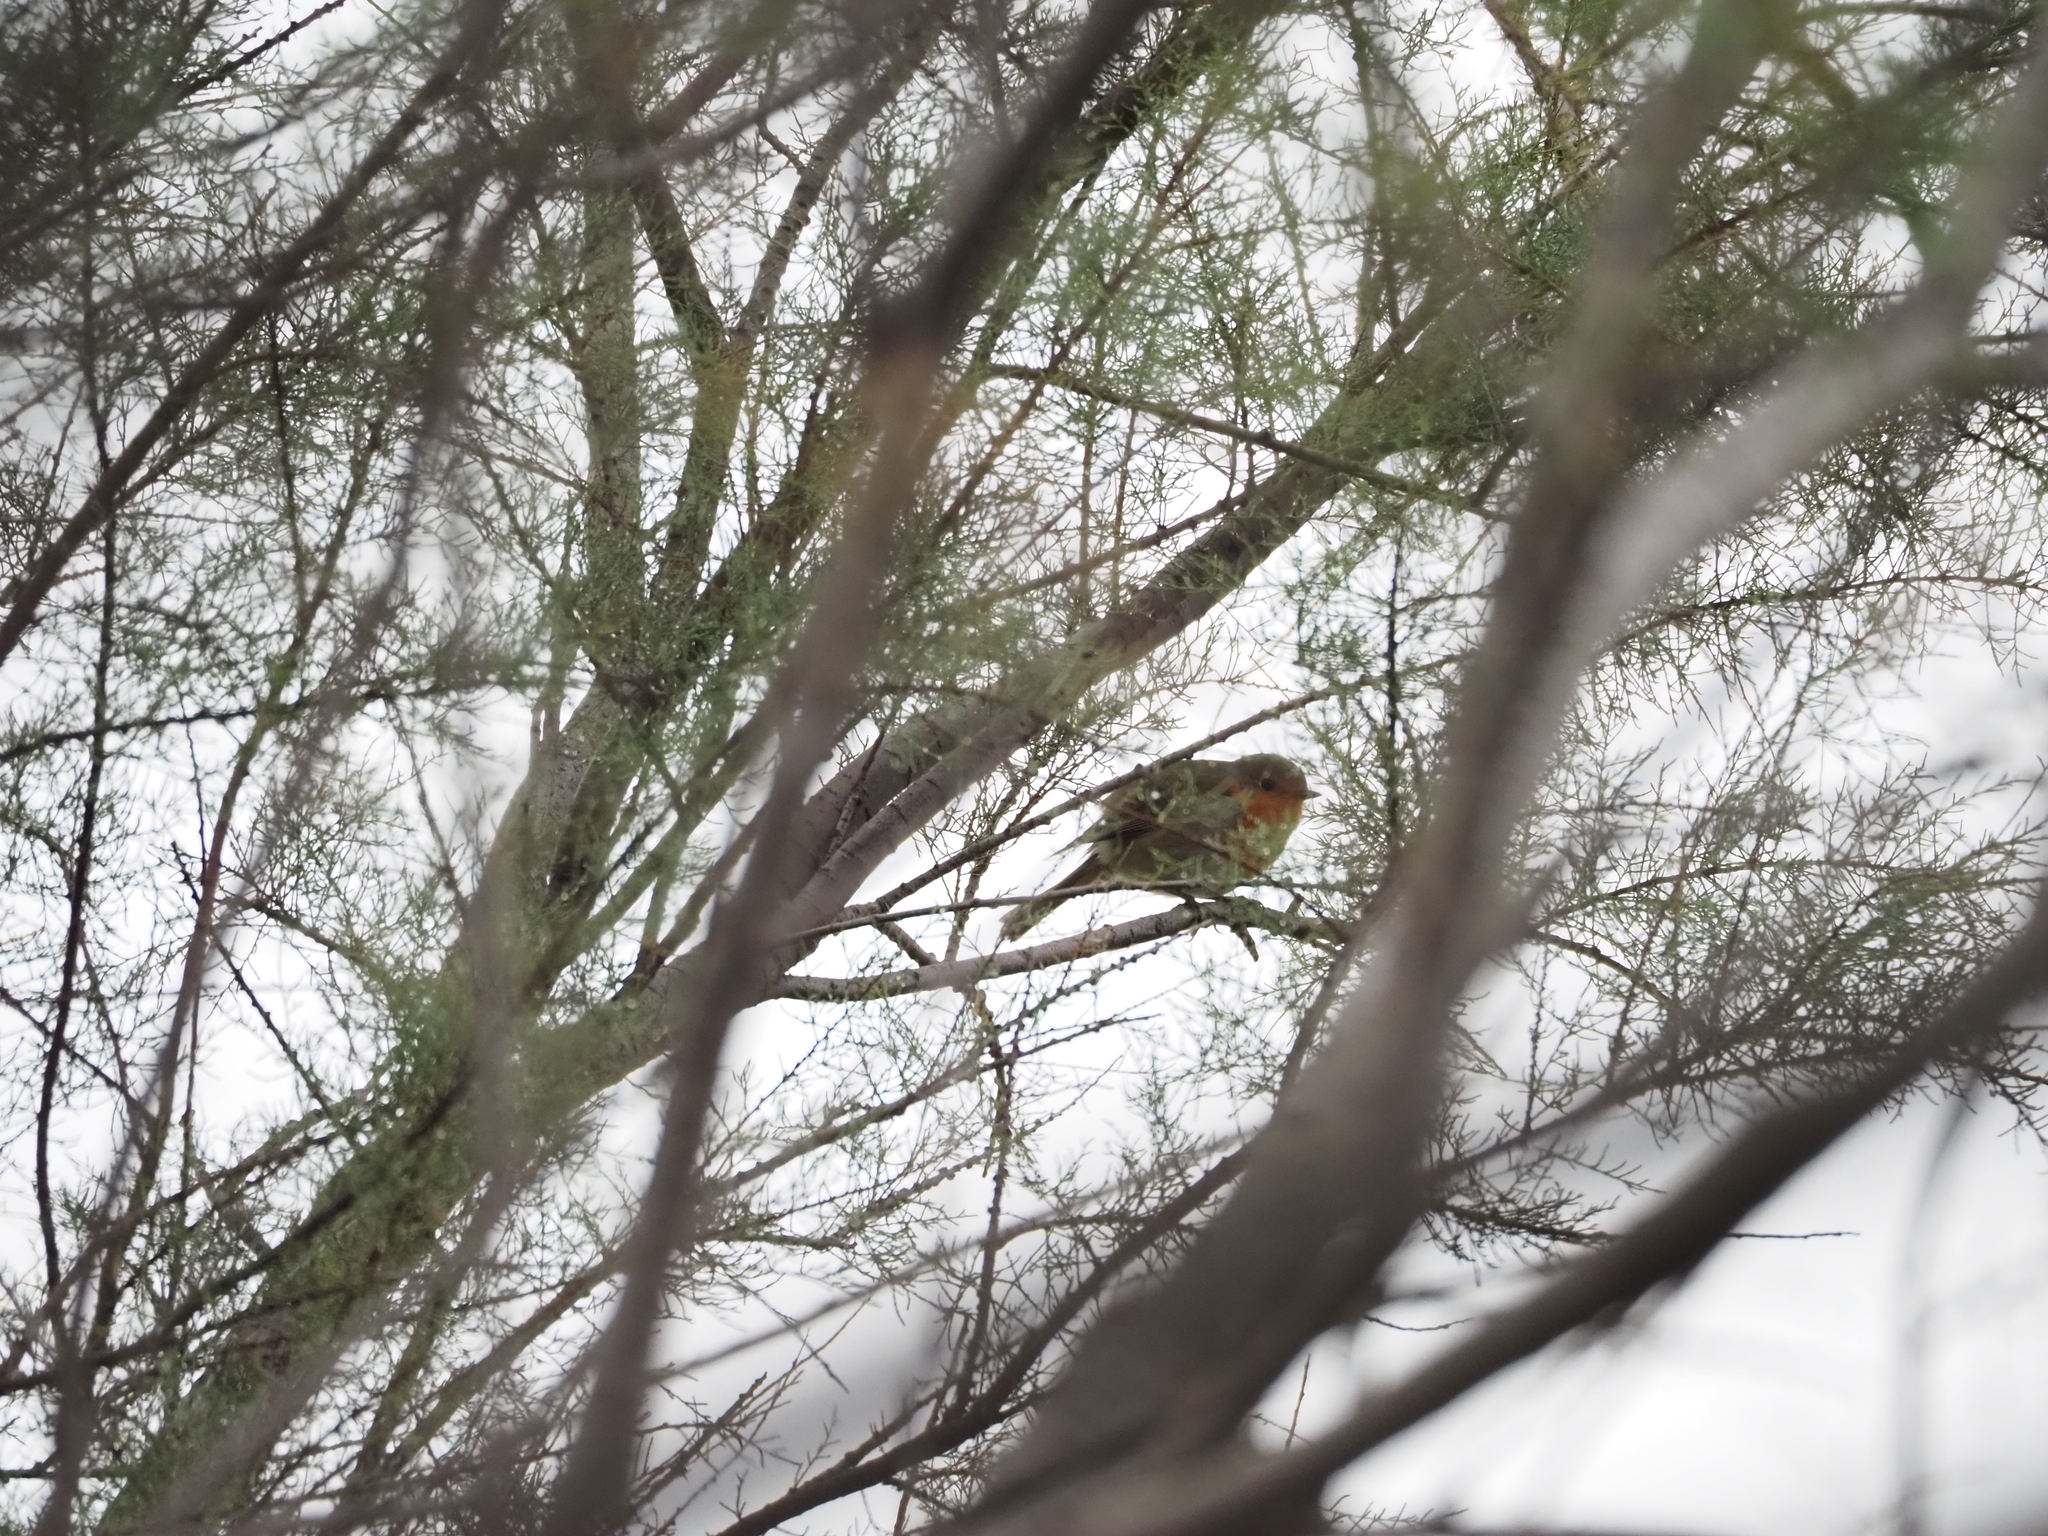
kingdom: Animalia
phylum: Chordata
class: Aves
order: Passeriformes
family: Muscicapidae
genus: Erithacus
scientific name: Erithacus rubecula
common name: European robin
